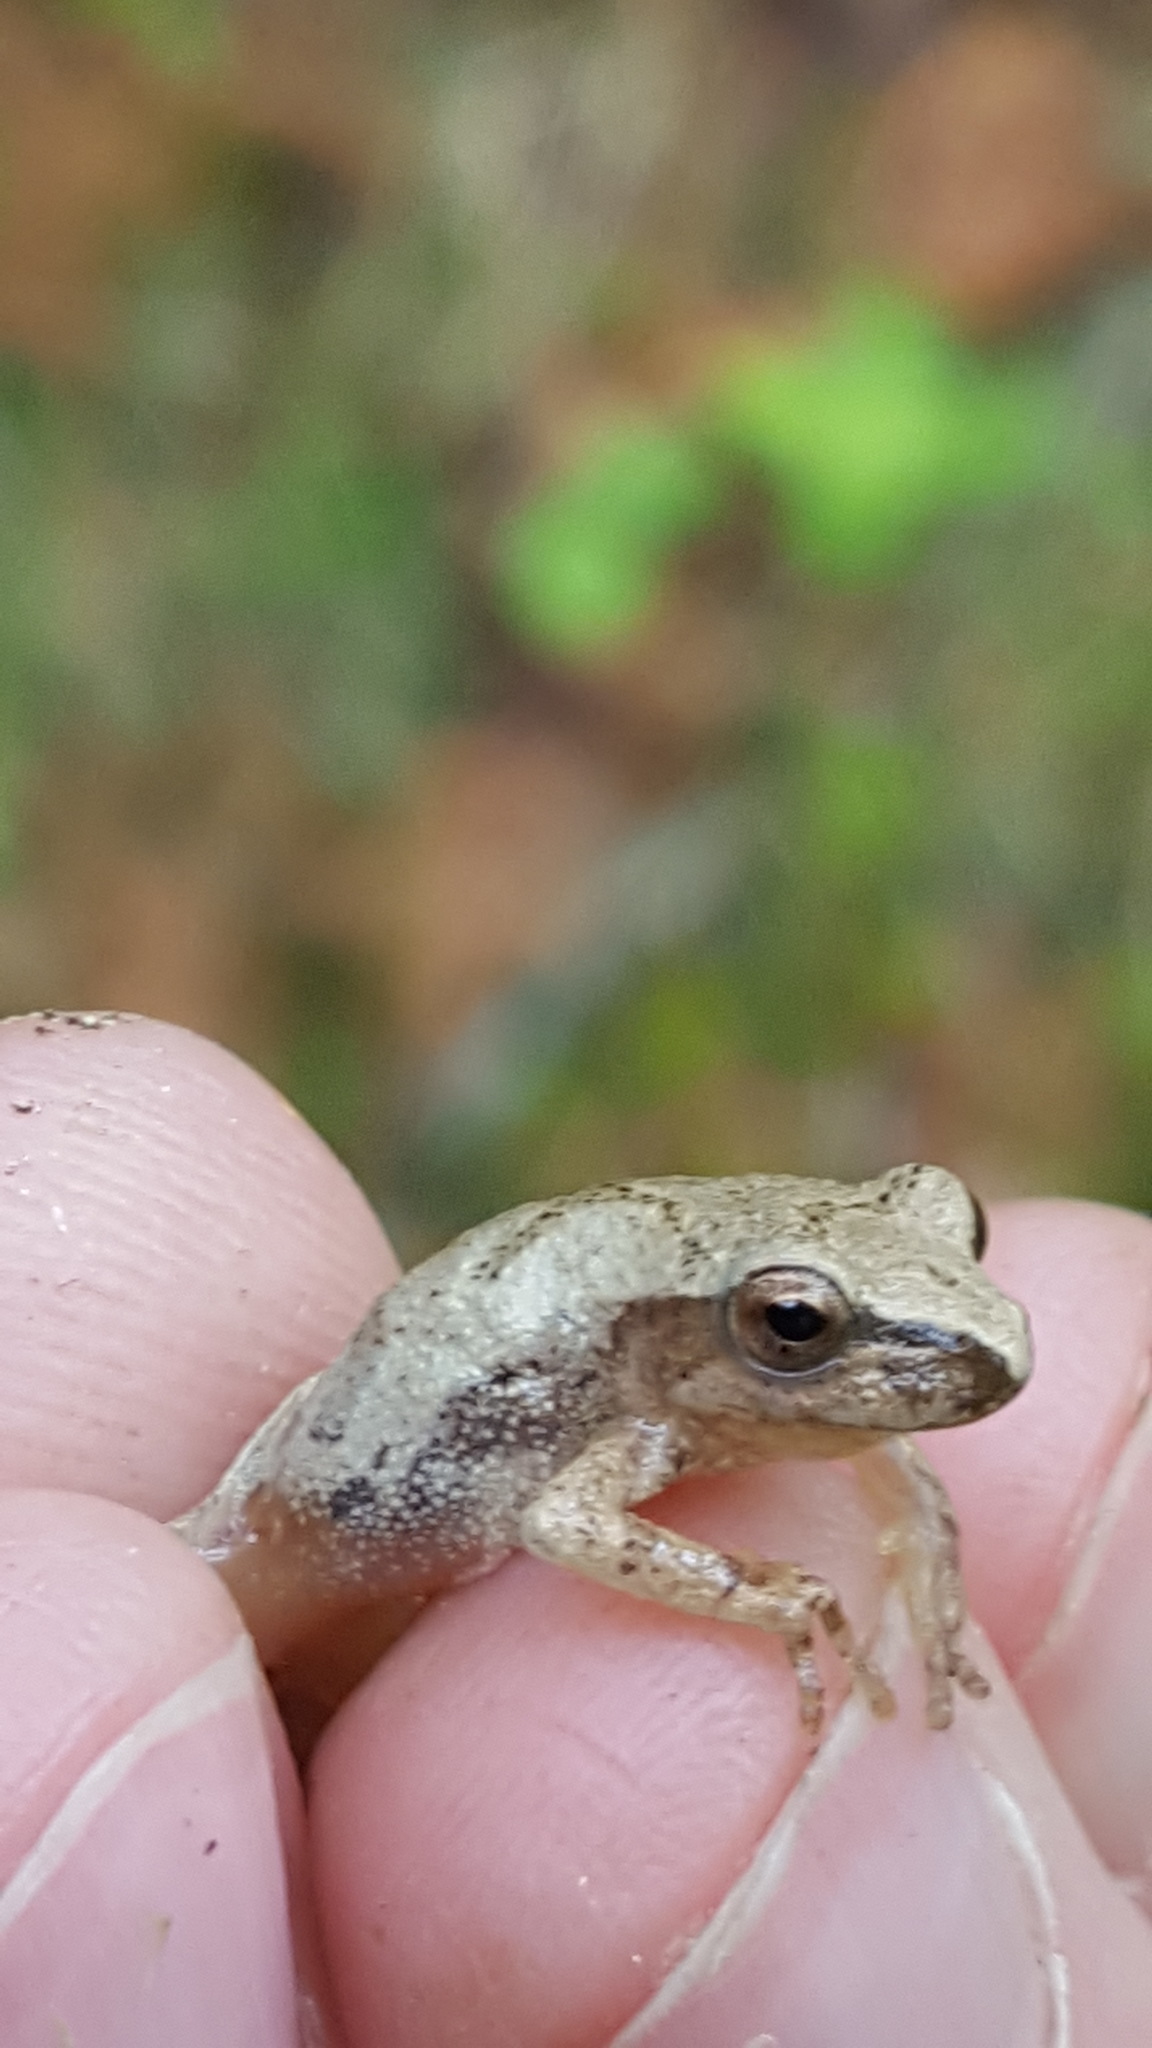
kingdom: Animalia
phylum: Chordata
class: Amphibia
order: Anura
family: Hylidae
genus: Pseudacris
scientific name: Pseudacris crucifer
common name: Spring peeper
